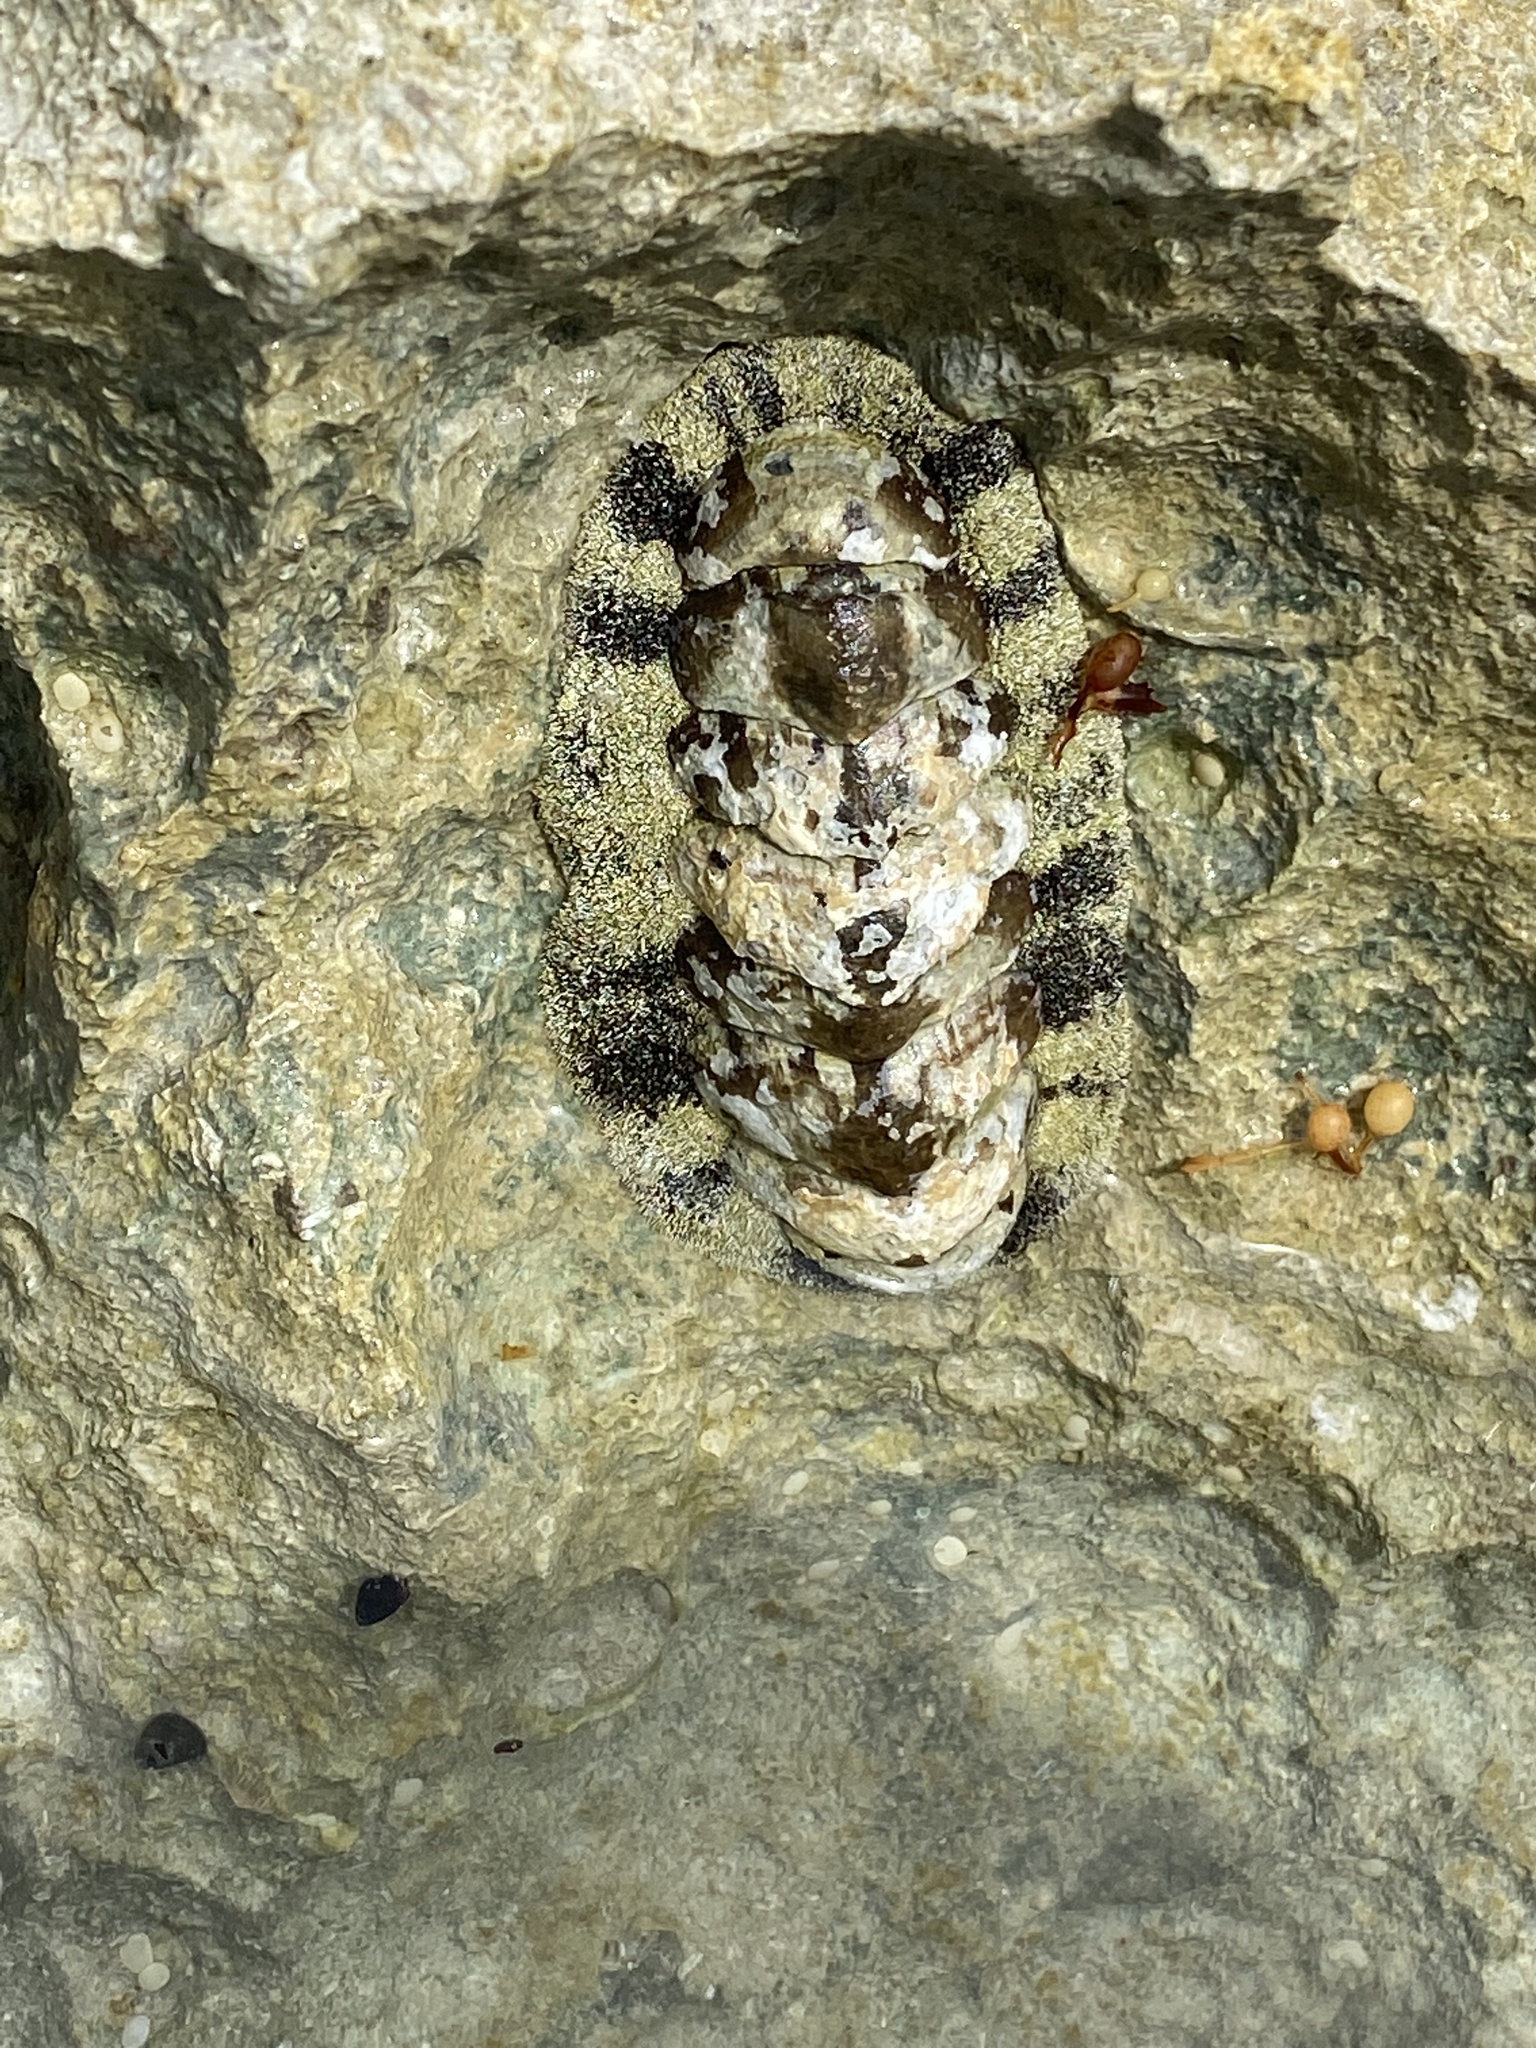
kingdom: Animalia
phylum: Mollusca
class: Polyplacophora
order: Chitonida
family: Chitonidae
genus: Acanthopleura
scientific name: Acanthopleura granulata
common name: West indian fuzzy chiton
